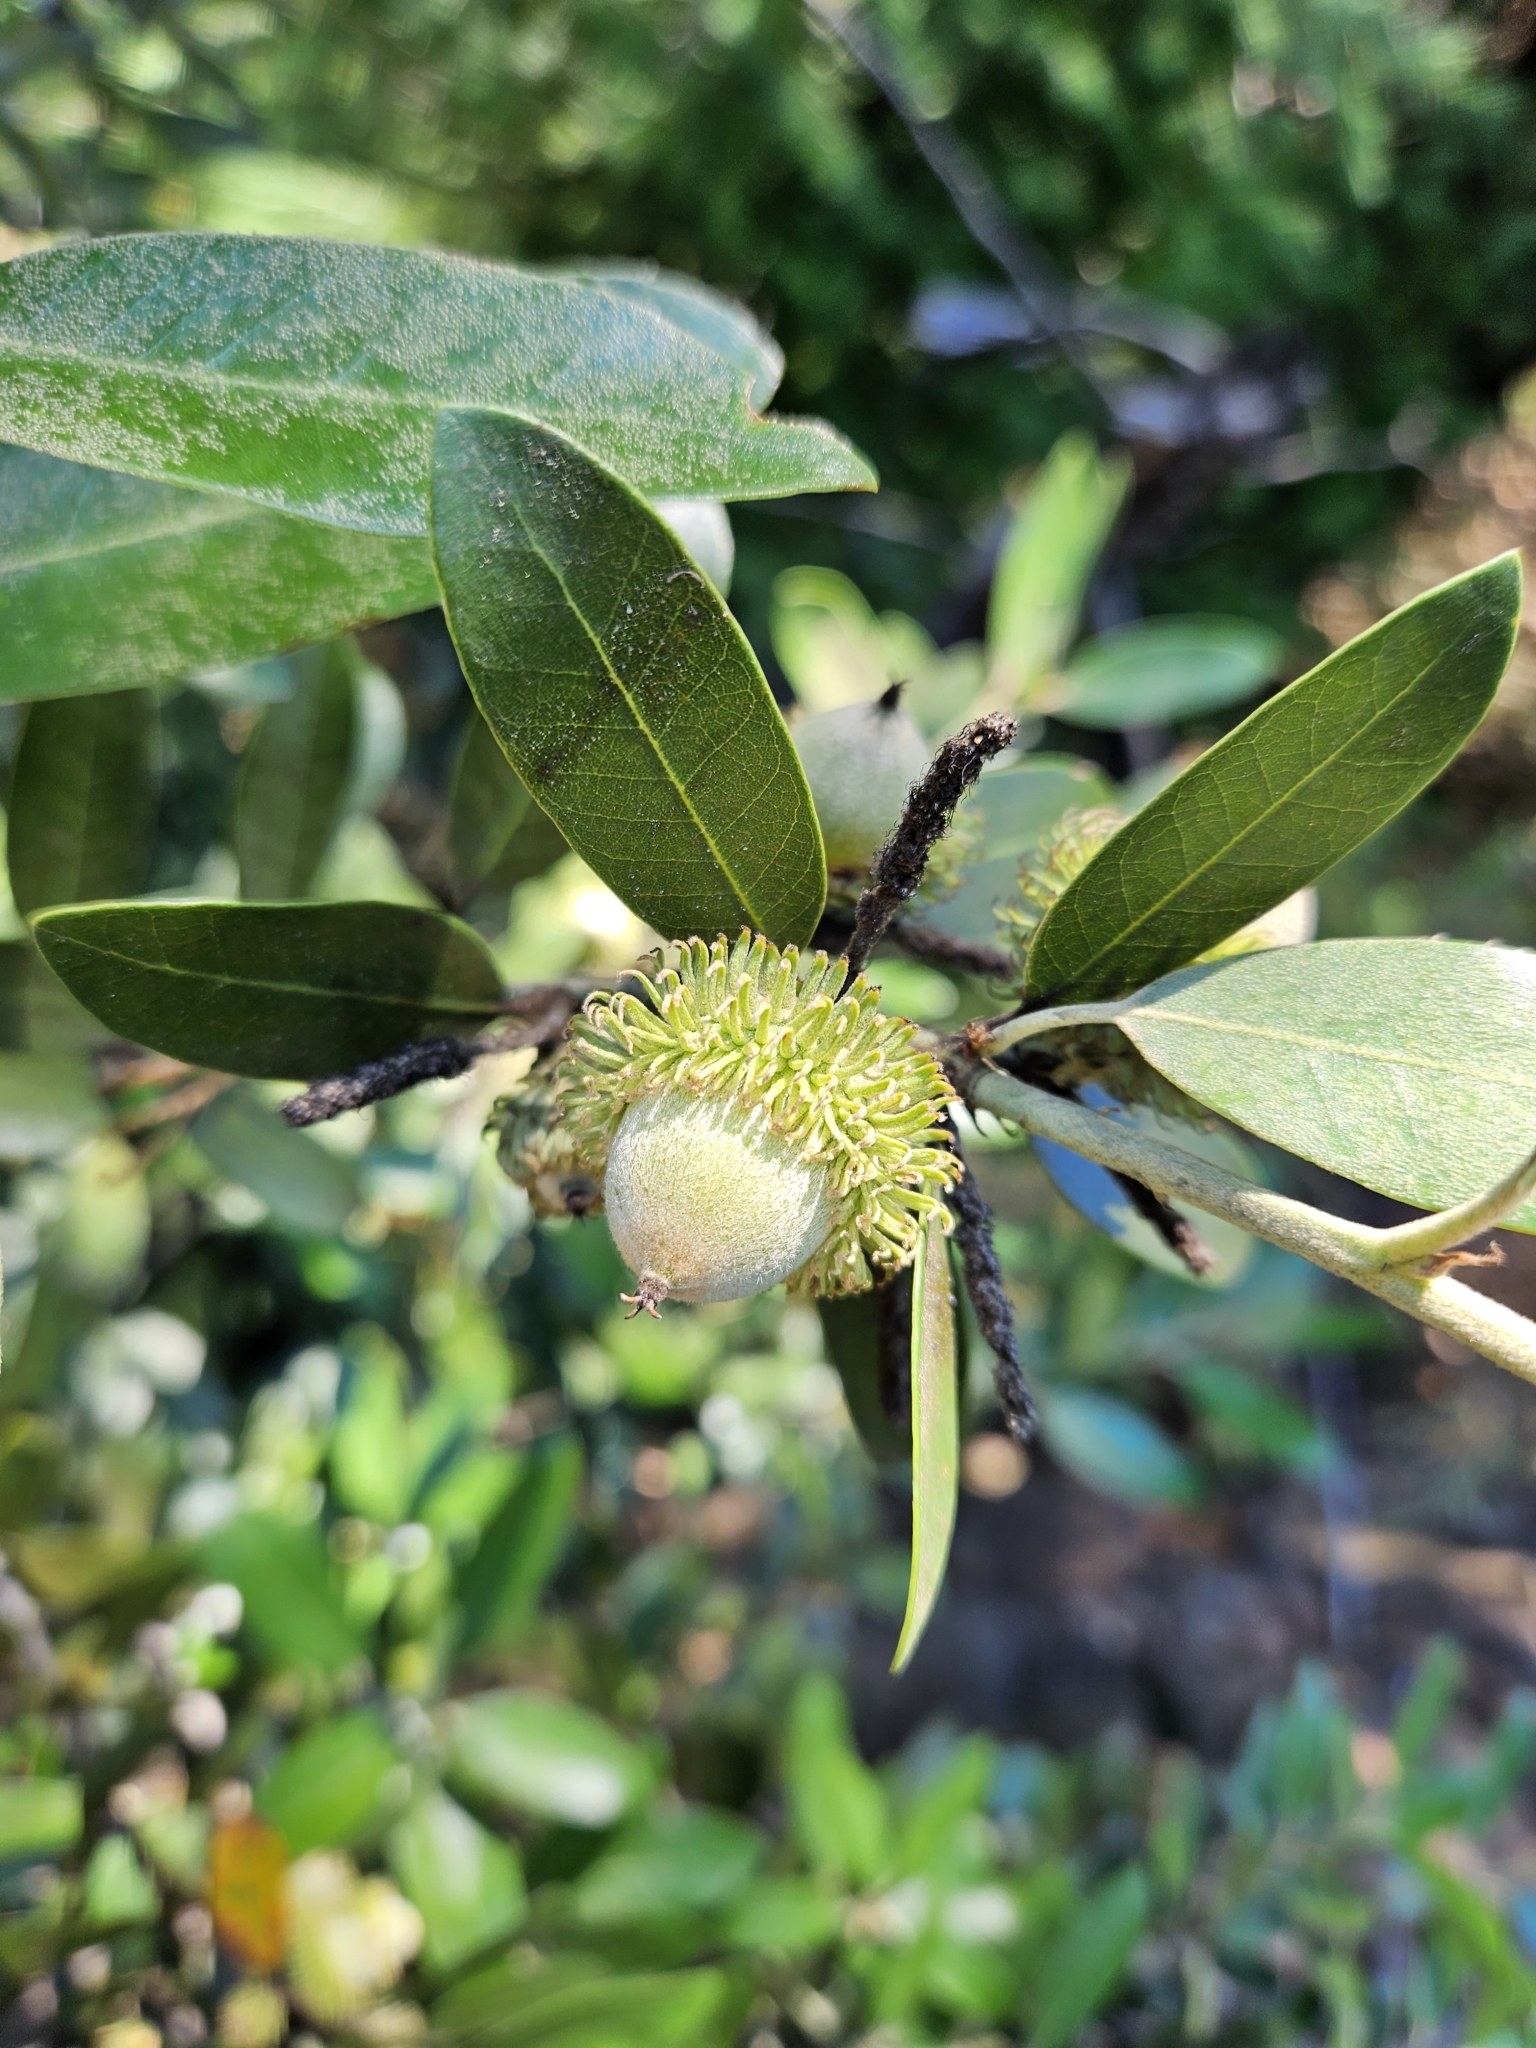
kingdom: Plantae
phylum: Tracheophyta
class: Magnoliopsida
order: Fagales
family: Fagaceae
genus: Notholithocarpus
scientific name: Notholithocarpus densiflorus
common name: Tan bark oak
